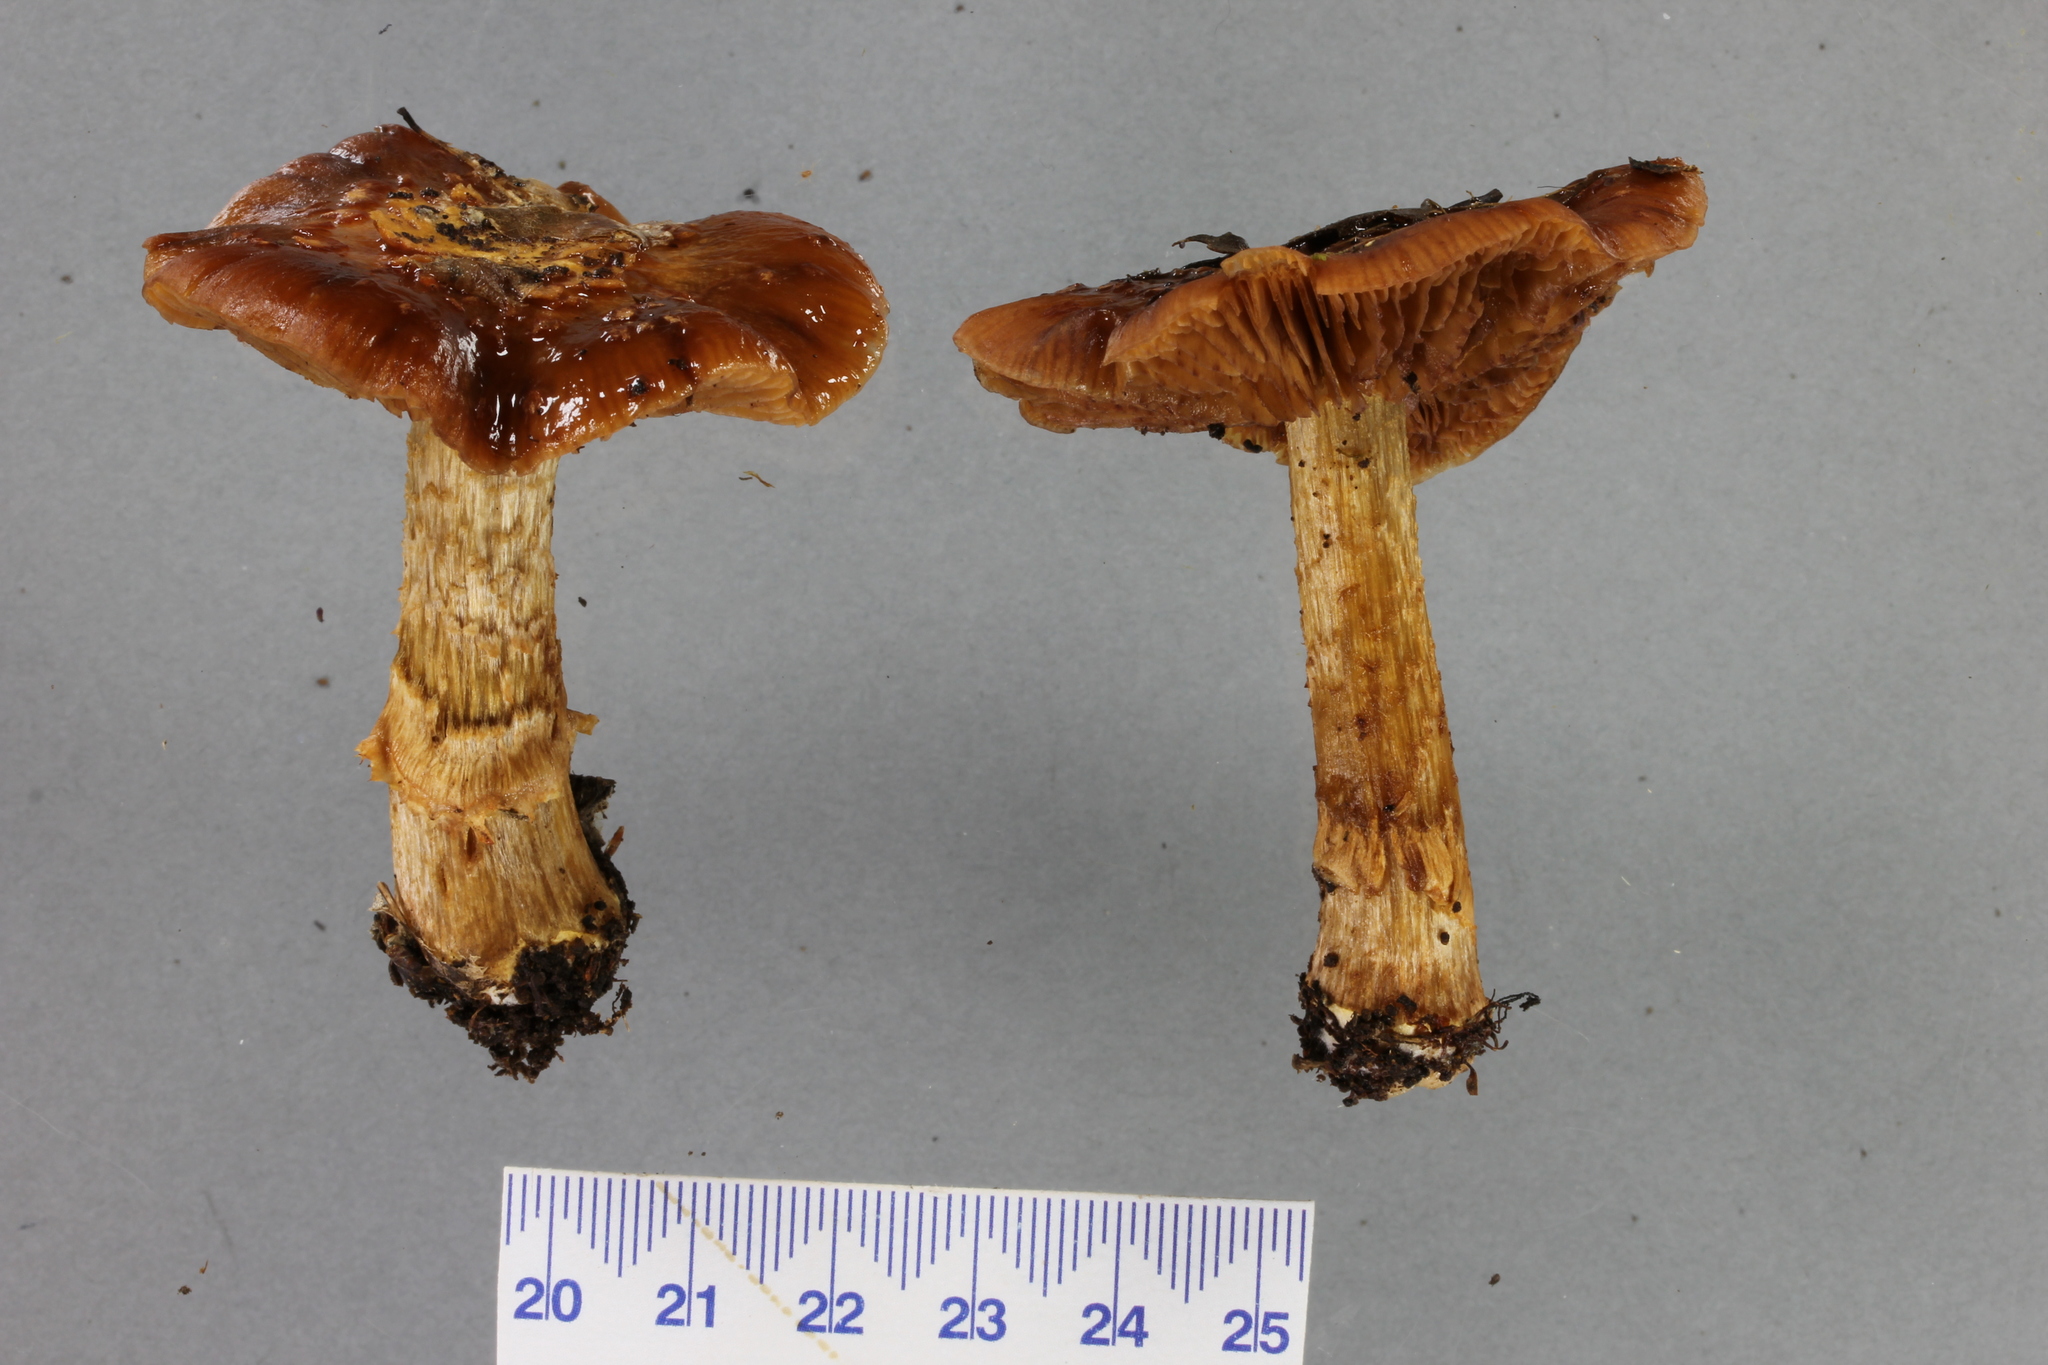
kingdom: Fungi
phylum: Basidiomycota
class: Agaricomycetes
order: Agaricales
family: Cortinariaceae
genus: Cortinarius
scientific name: Cortinarius subcastanellus
